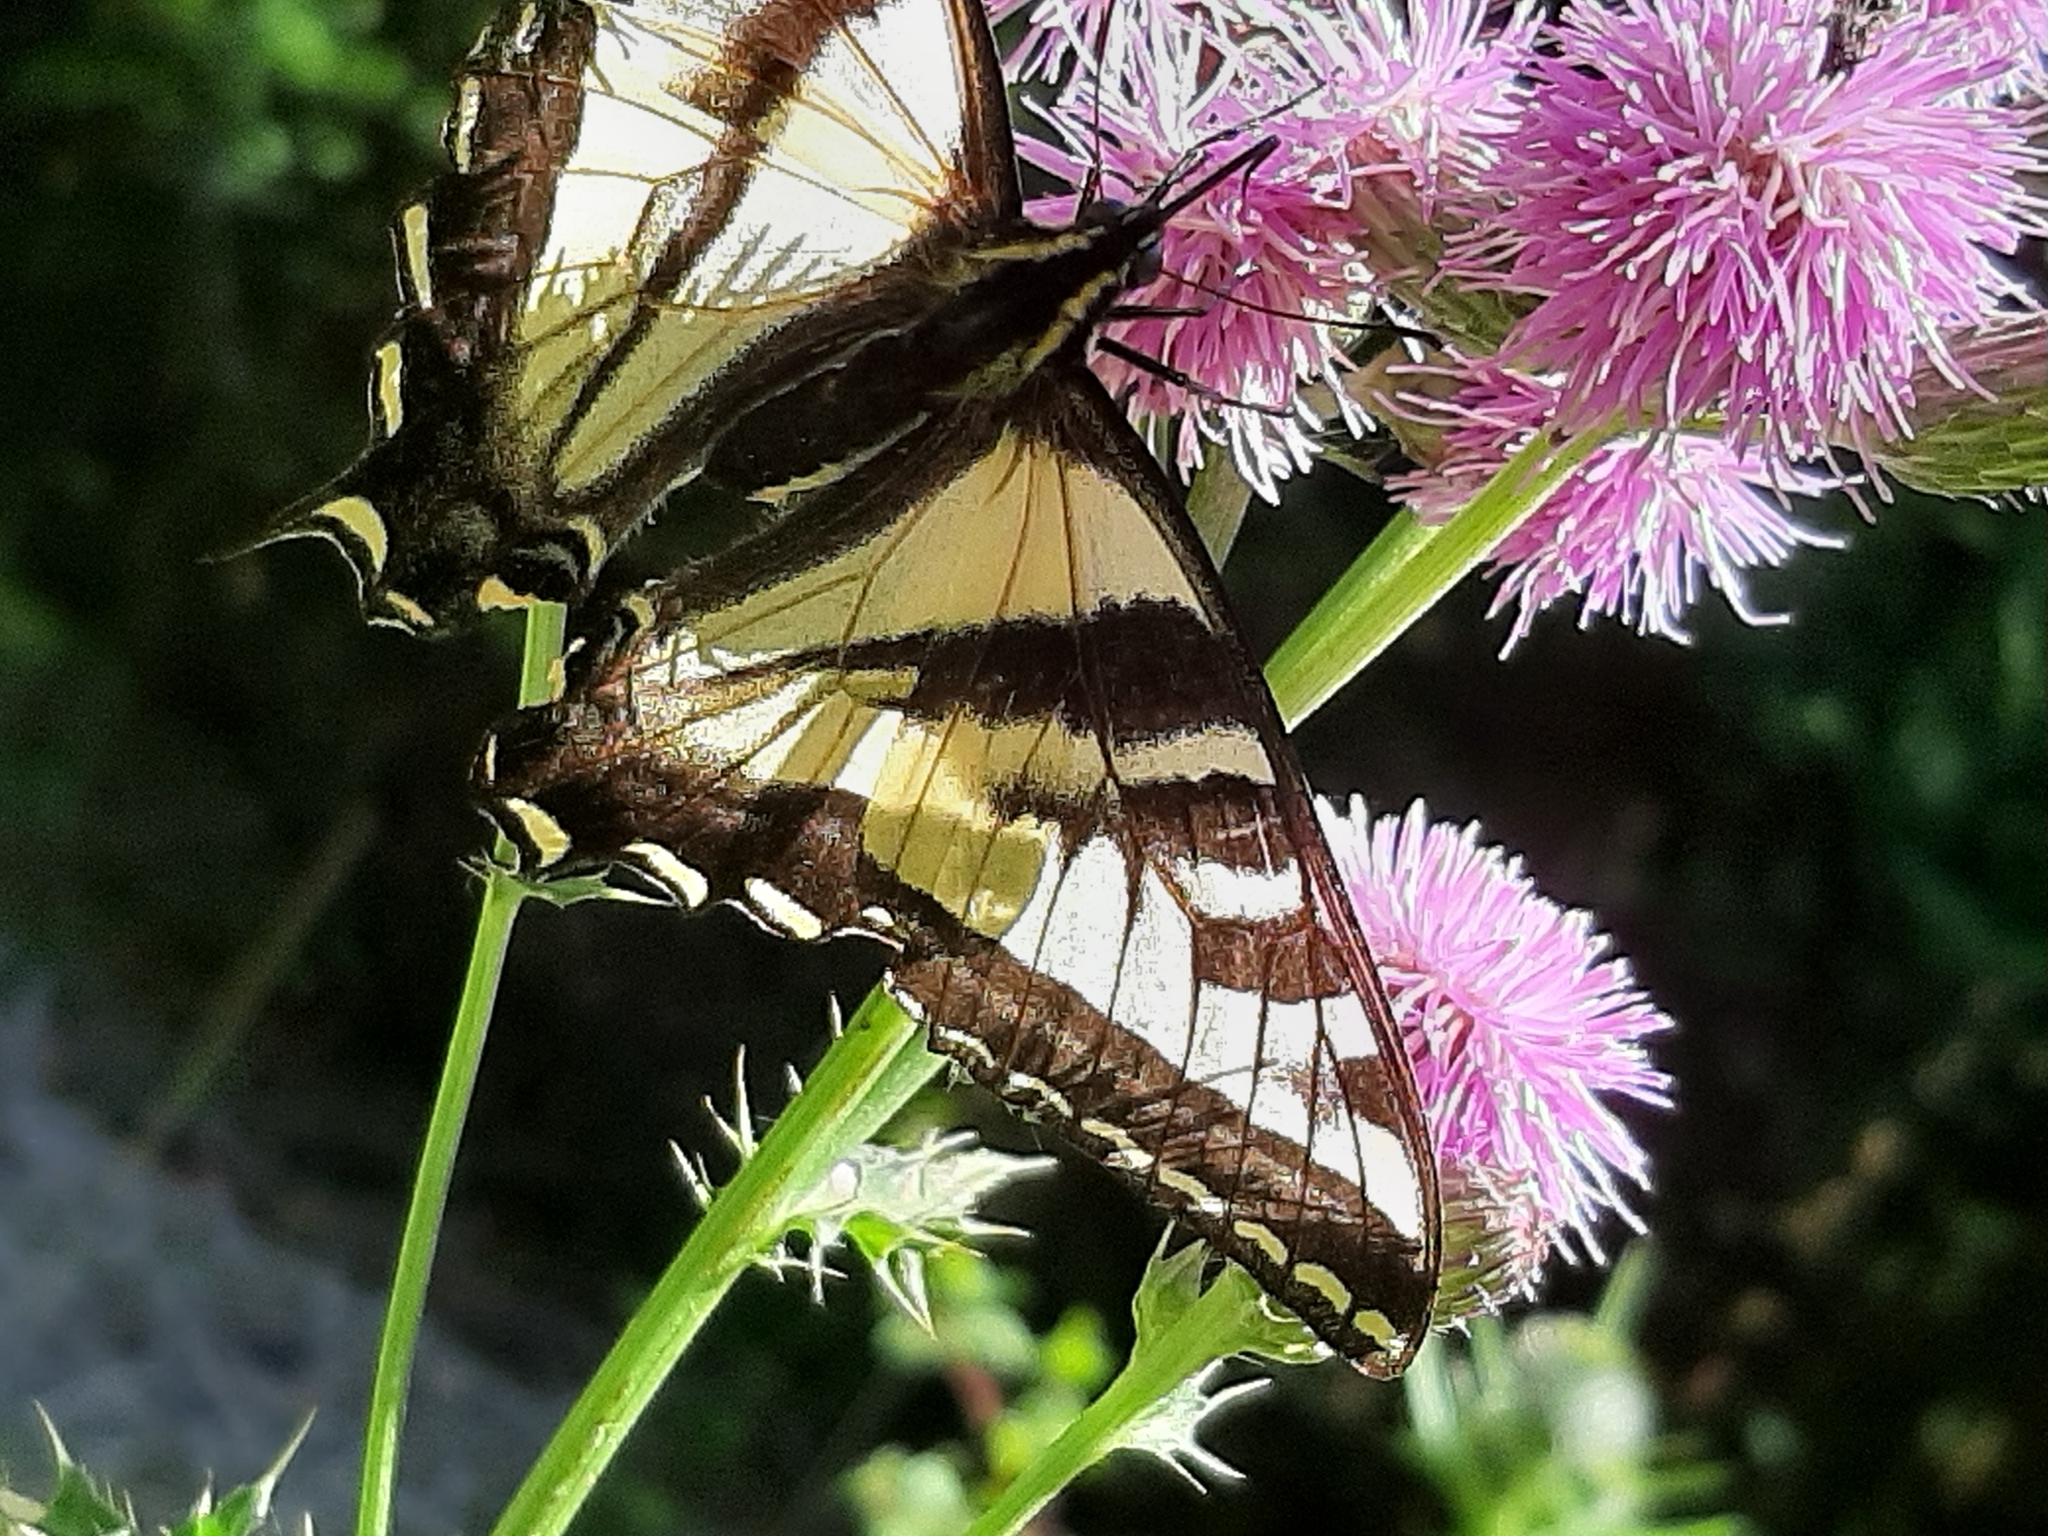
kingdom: Animalia
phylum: Arthropoda
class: Insecta
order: Lepidoptera
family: Papilionidae
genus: Papilio
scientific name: Papilio rutulus
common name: Western tiger swallowtail
